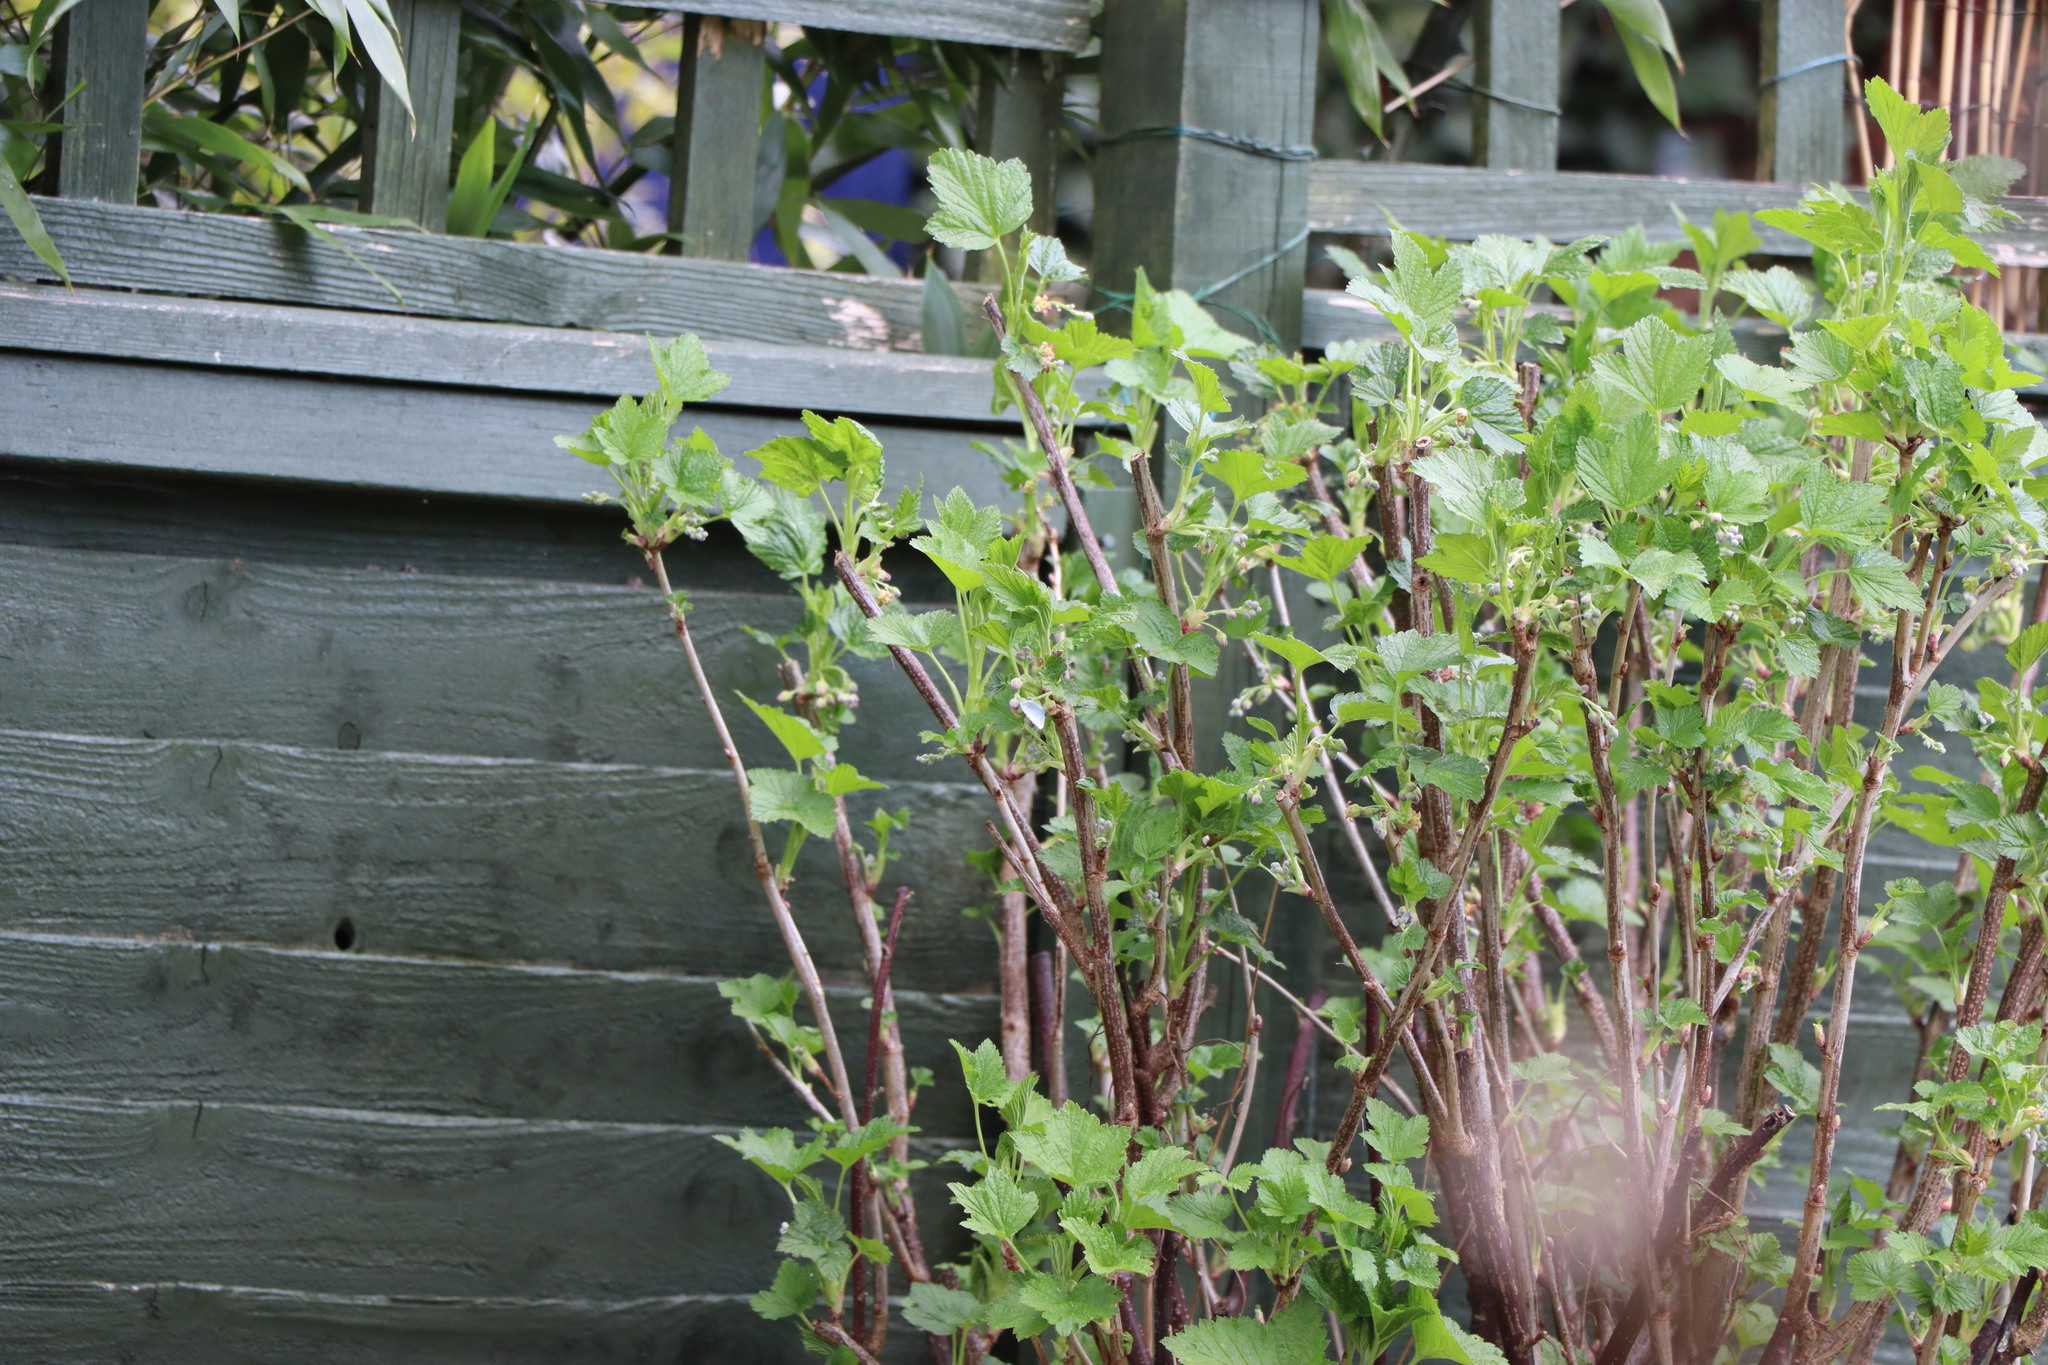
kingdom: Animalia
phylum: Arthropoda
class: Insecta
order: Lepidoptera
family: Lycaenidae
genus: Celastrina
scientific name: Celastrina argiolus
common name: Holly blue
